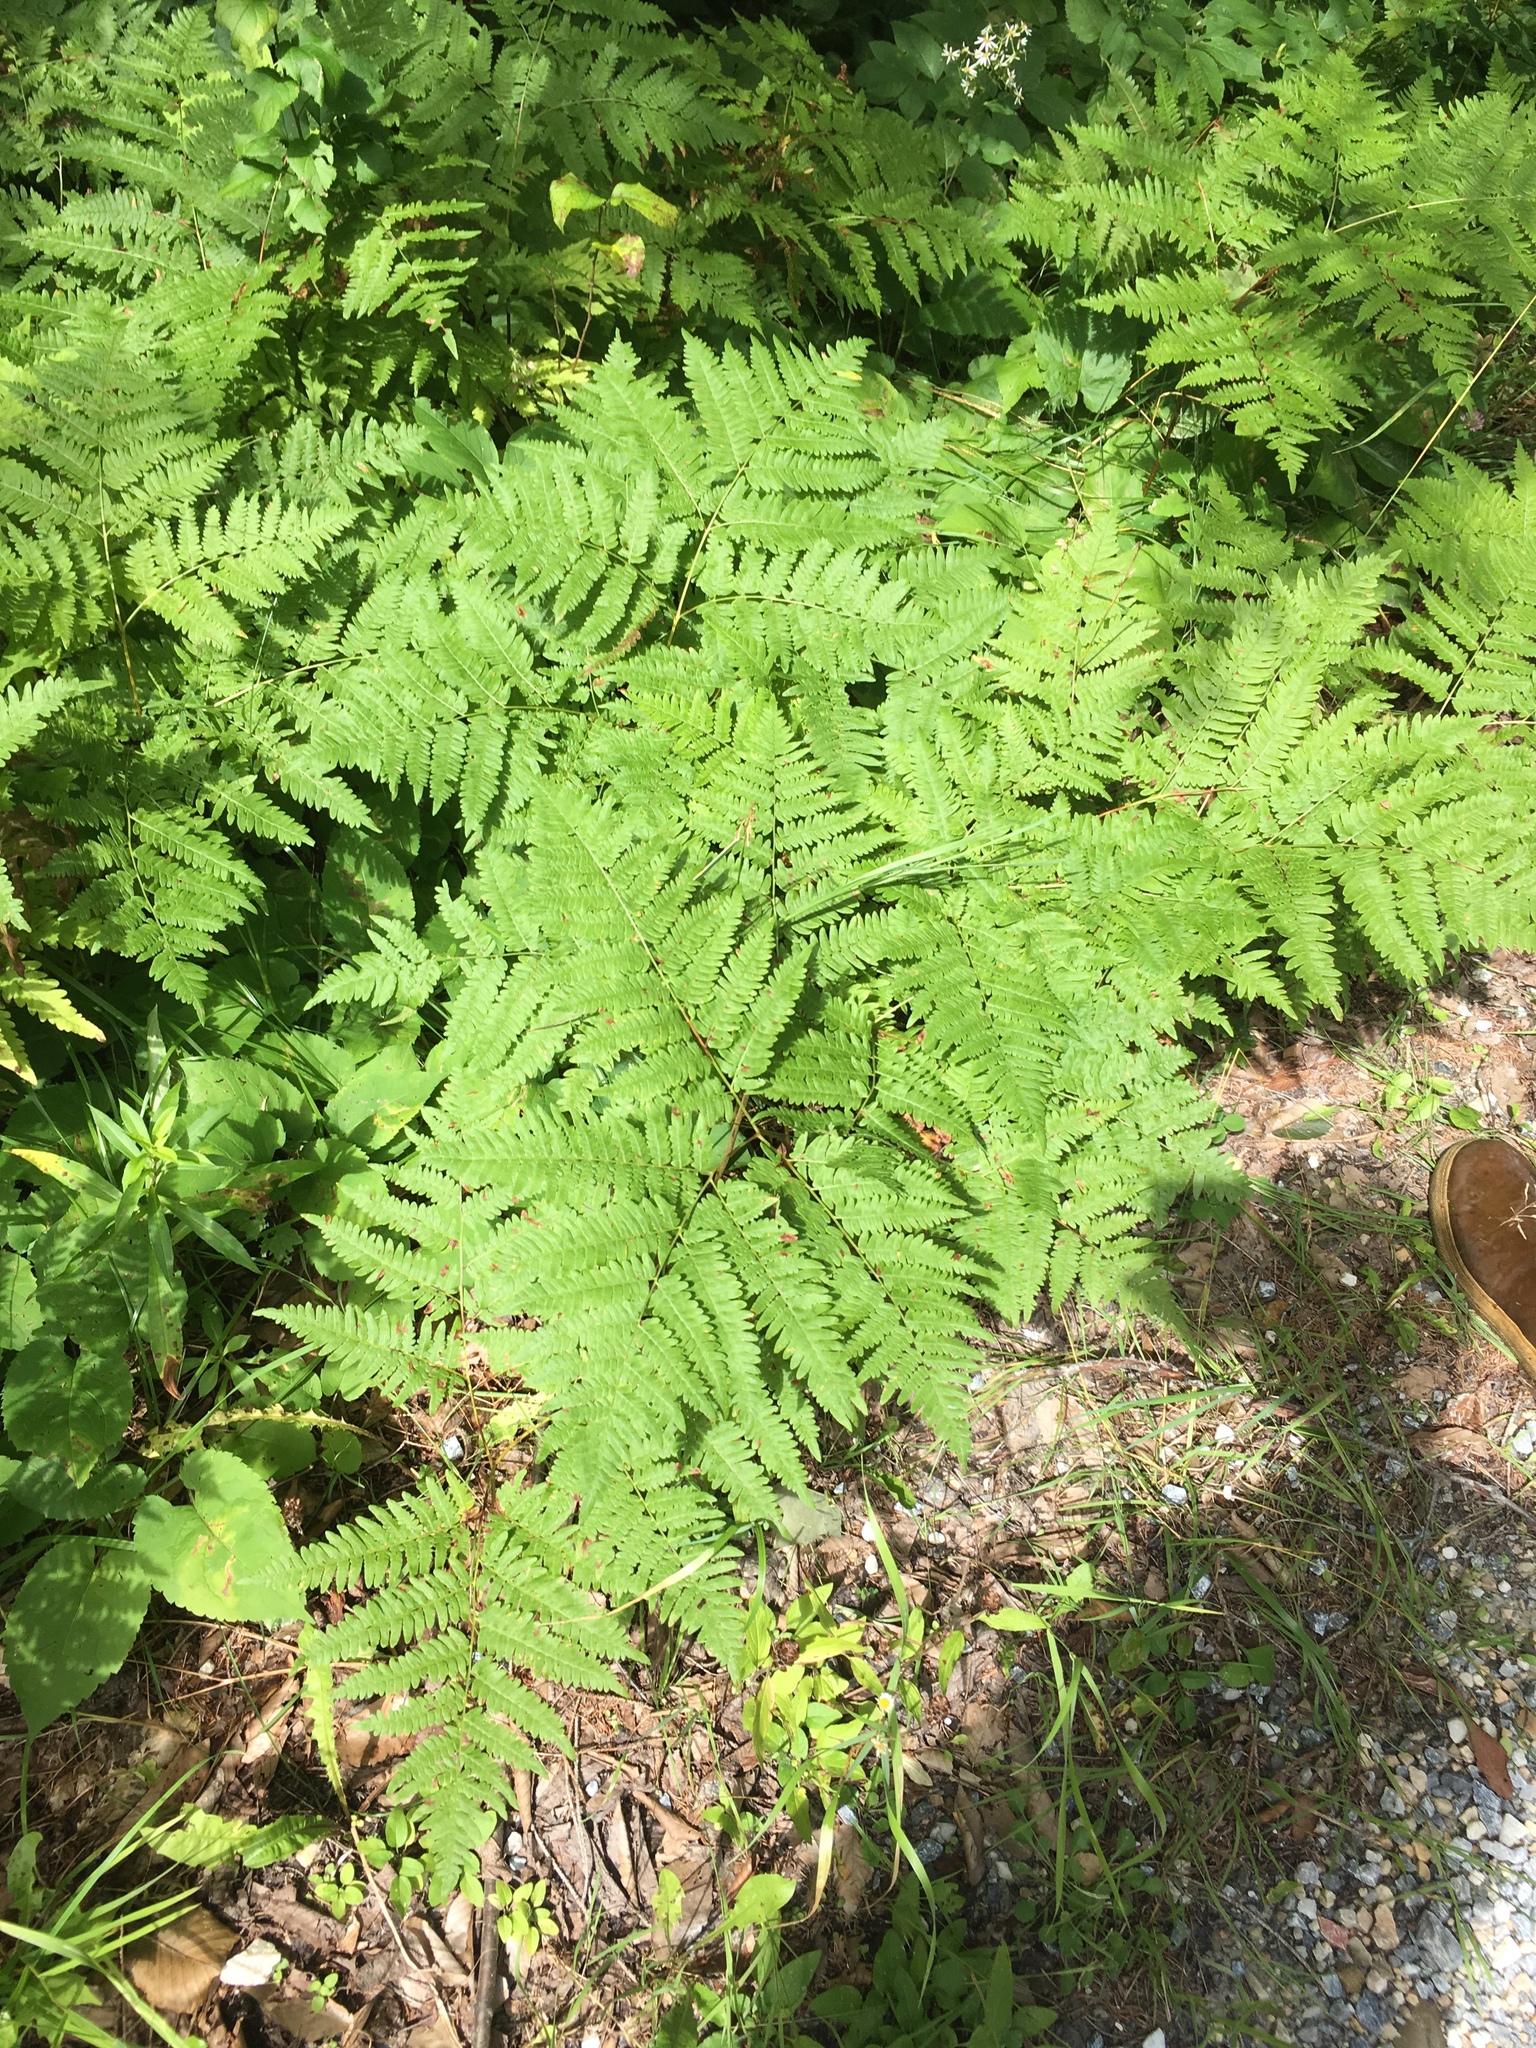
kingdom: Plantae
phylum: Tracheophyta
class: Polypodiopsida
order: Polypodiales
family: Dennstaedtiaceae
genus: Pteridium
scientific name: Pteridium aquilinum
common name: Bracken
